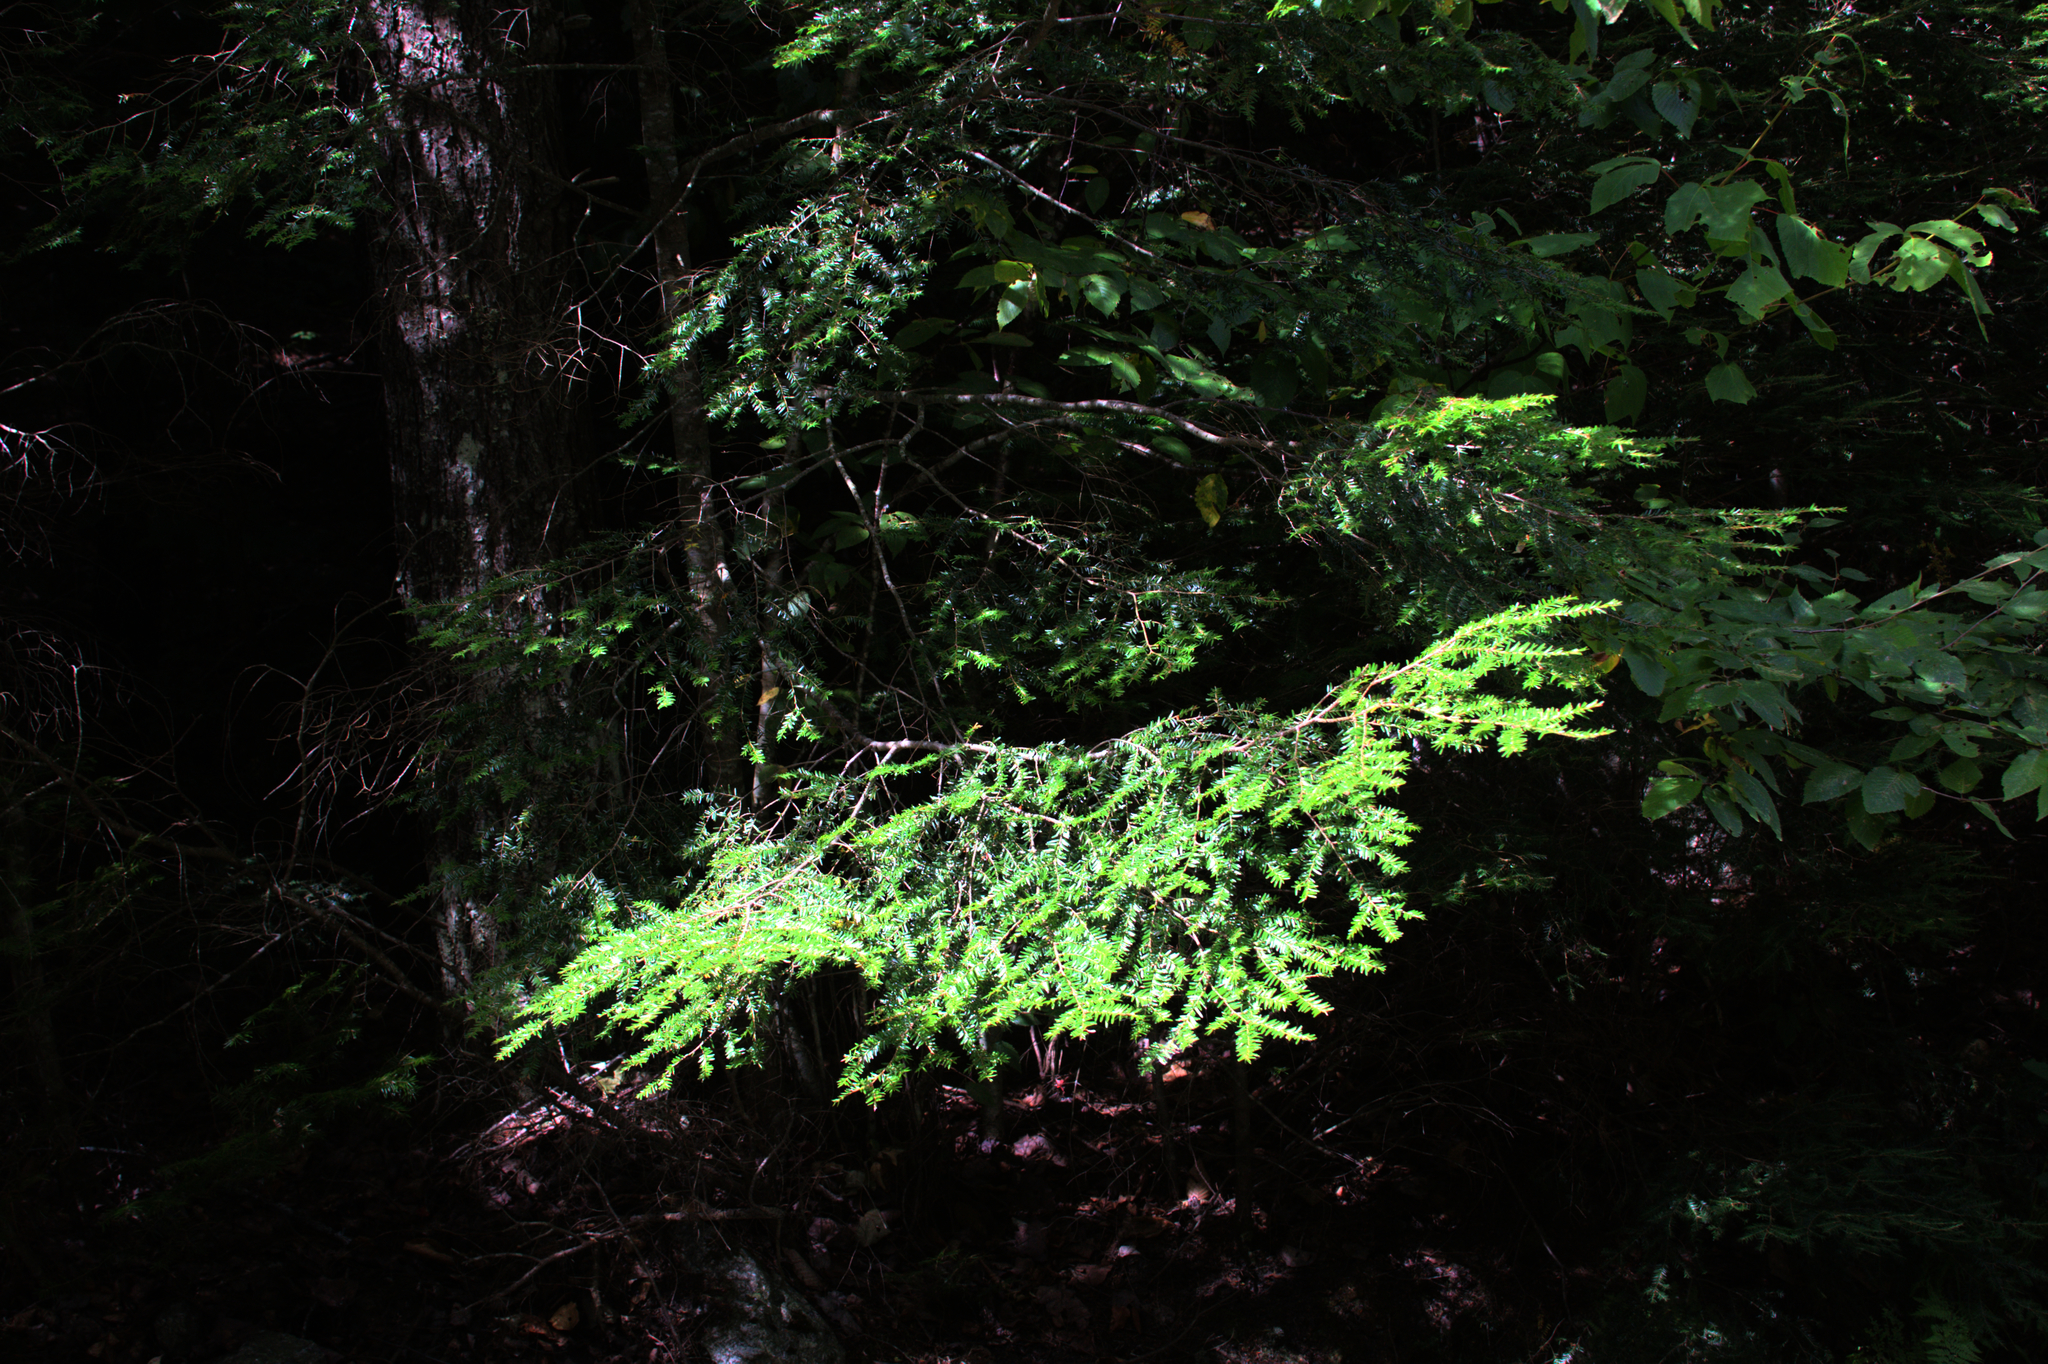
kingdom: Plantae
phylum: Tracheophyta
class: Pinopsida
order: Pinales
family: Pinaceae
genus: Tsuga
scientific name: Tsuga canadensis
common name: Eastern hemlock
